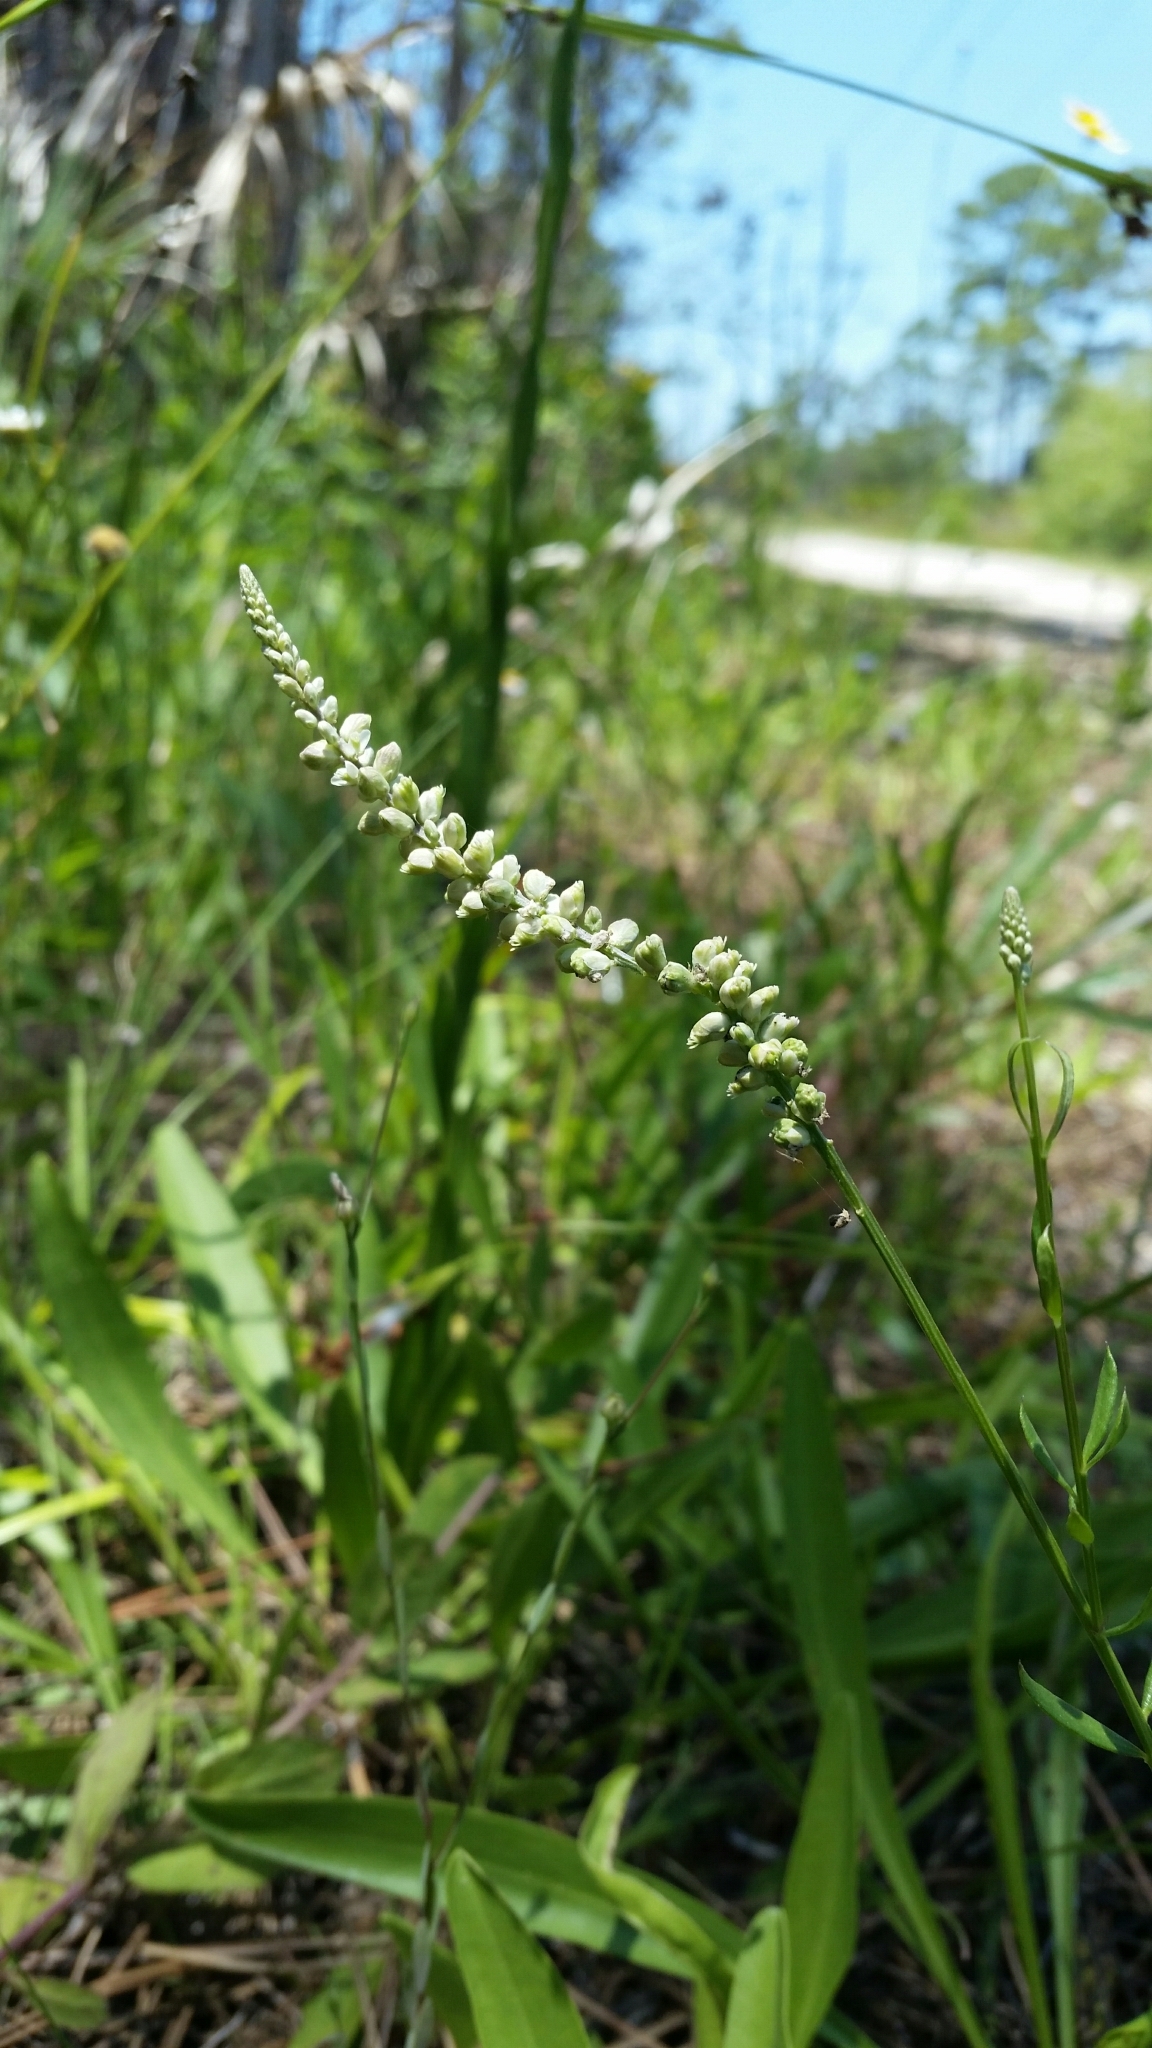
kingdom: Plantae
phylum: Tracheophyta
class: Magnoliopsida
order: Fabales
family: Polygalaceae
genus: Polygala
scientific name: Polygala boykinii
